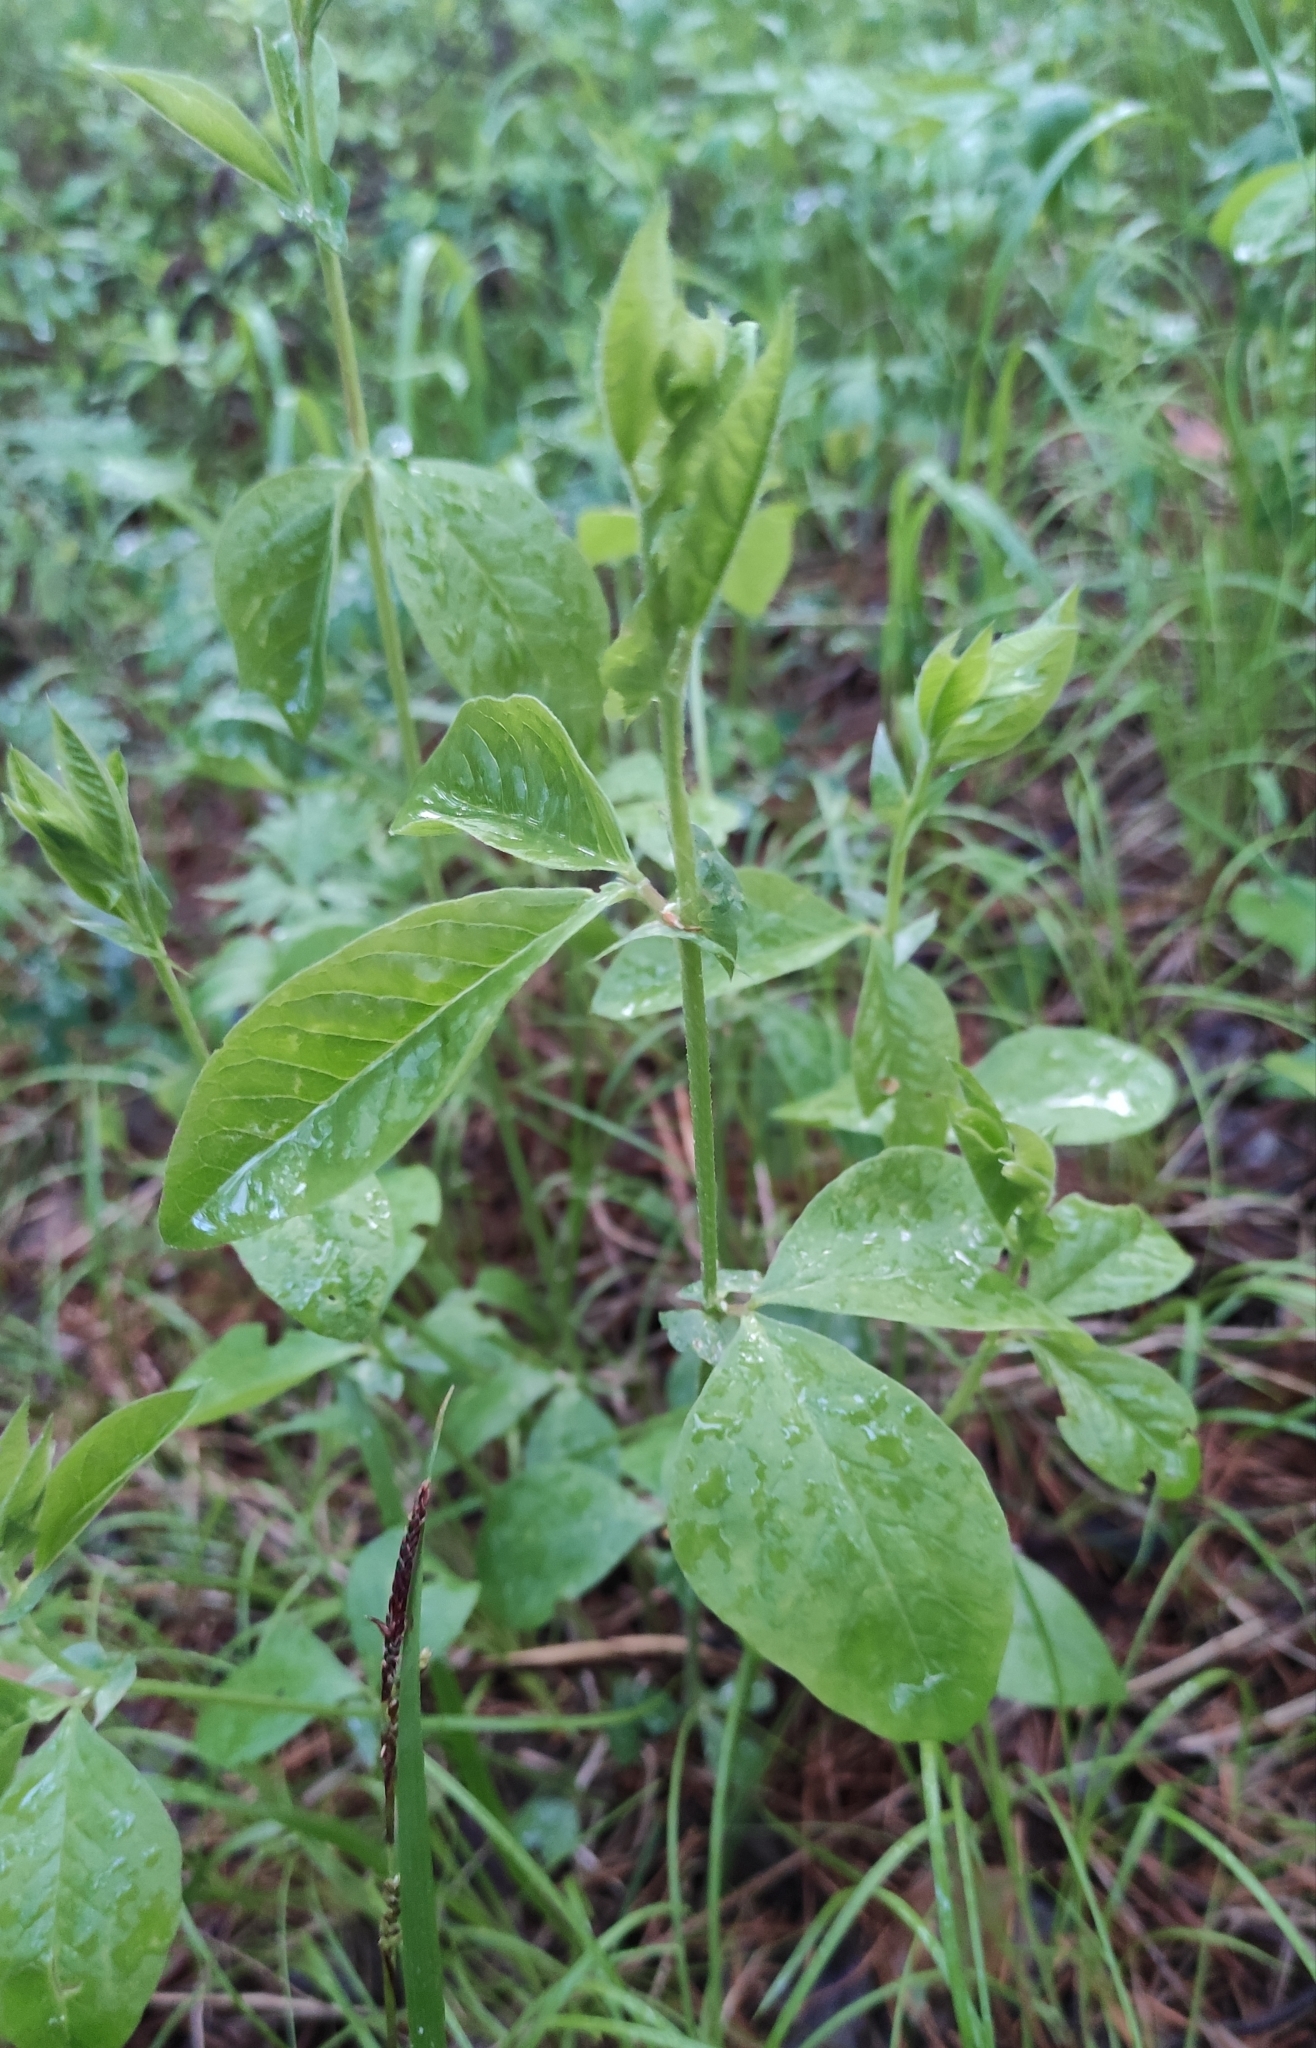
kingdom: Plantae
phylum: Tracheophyta
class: Magnoliopsida
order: Fabales
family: Fabaceae
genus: Vicia
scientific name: Vicia unijuga
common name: Two-leaf vetch
